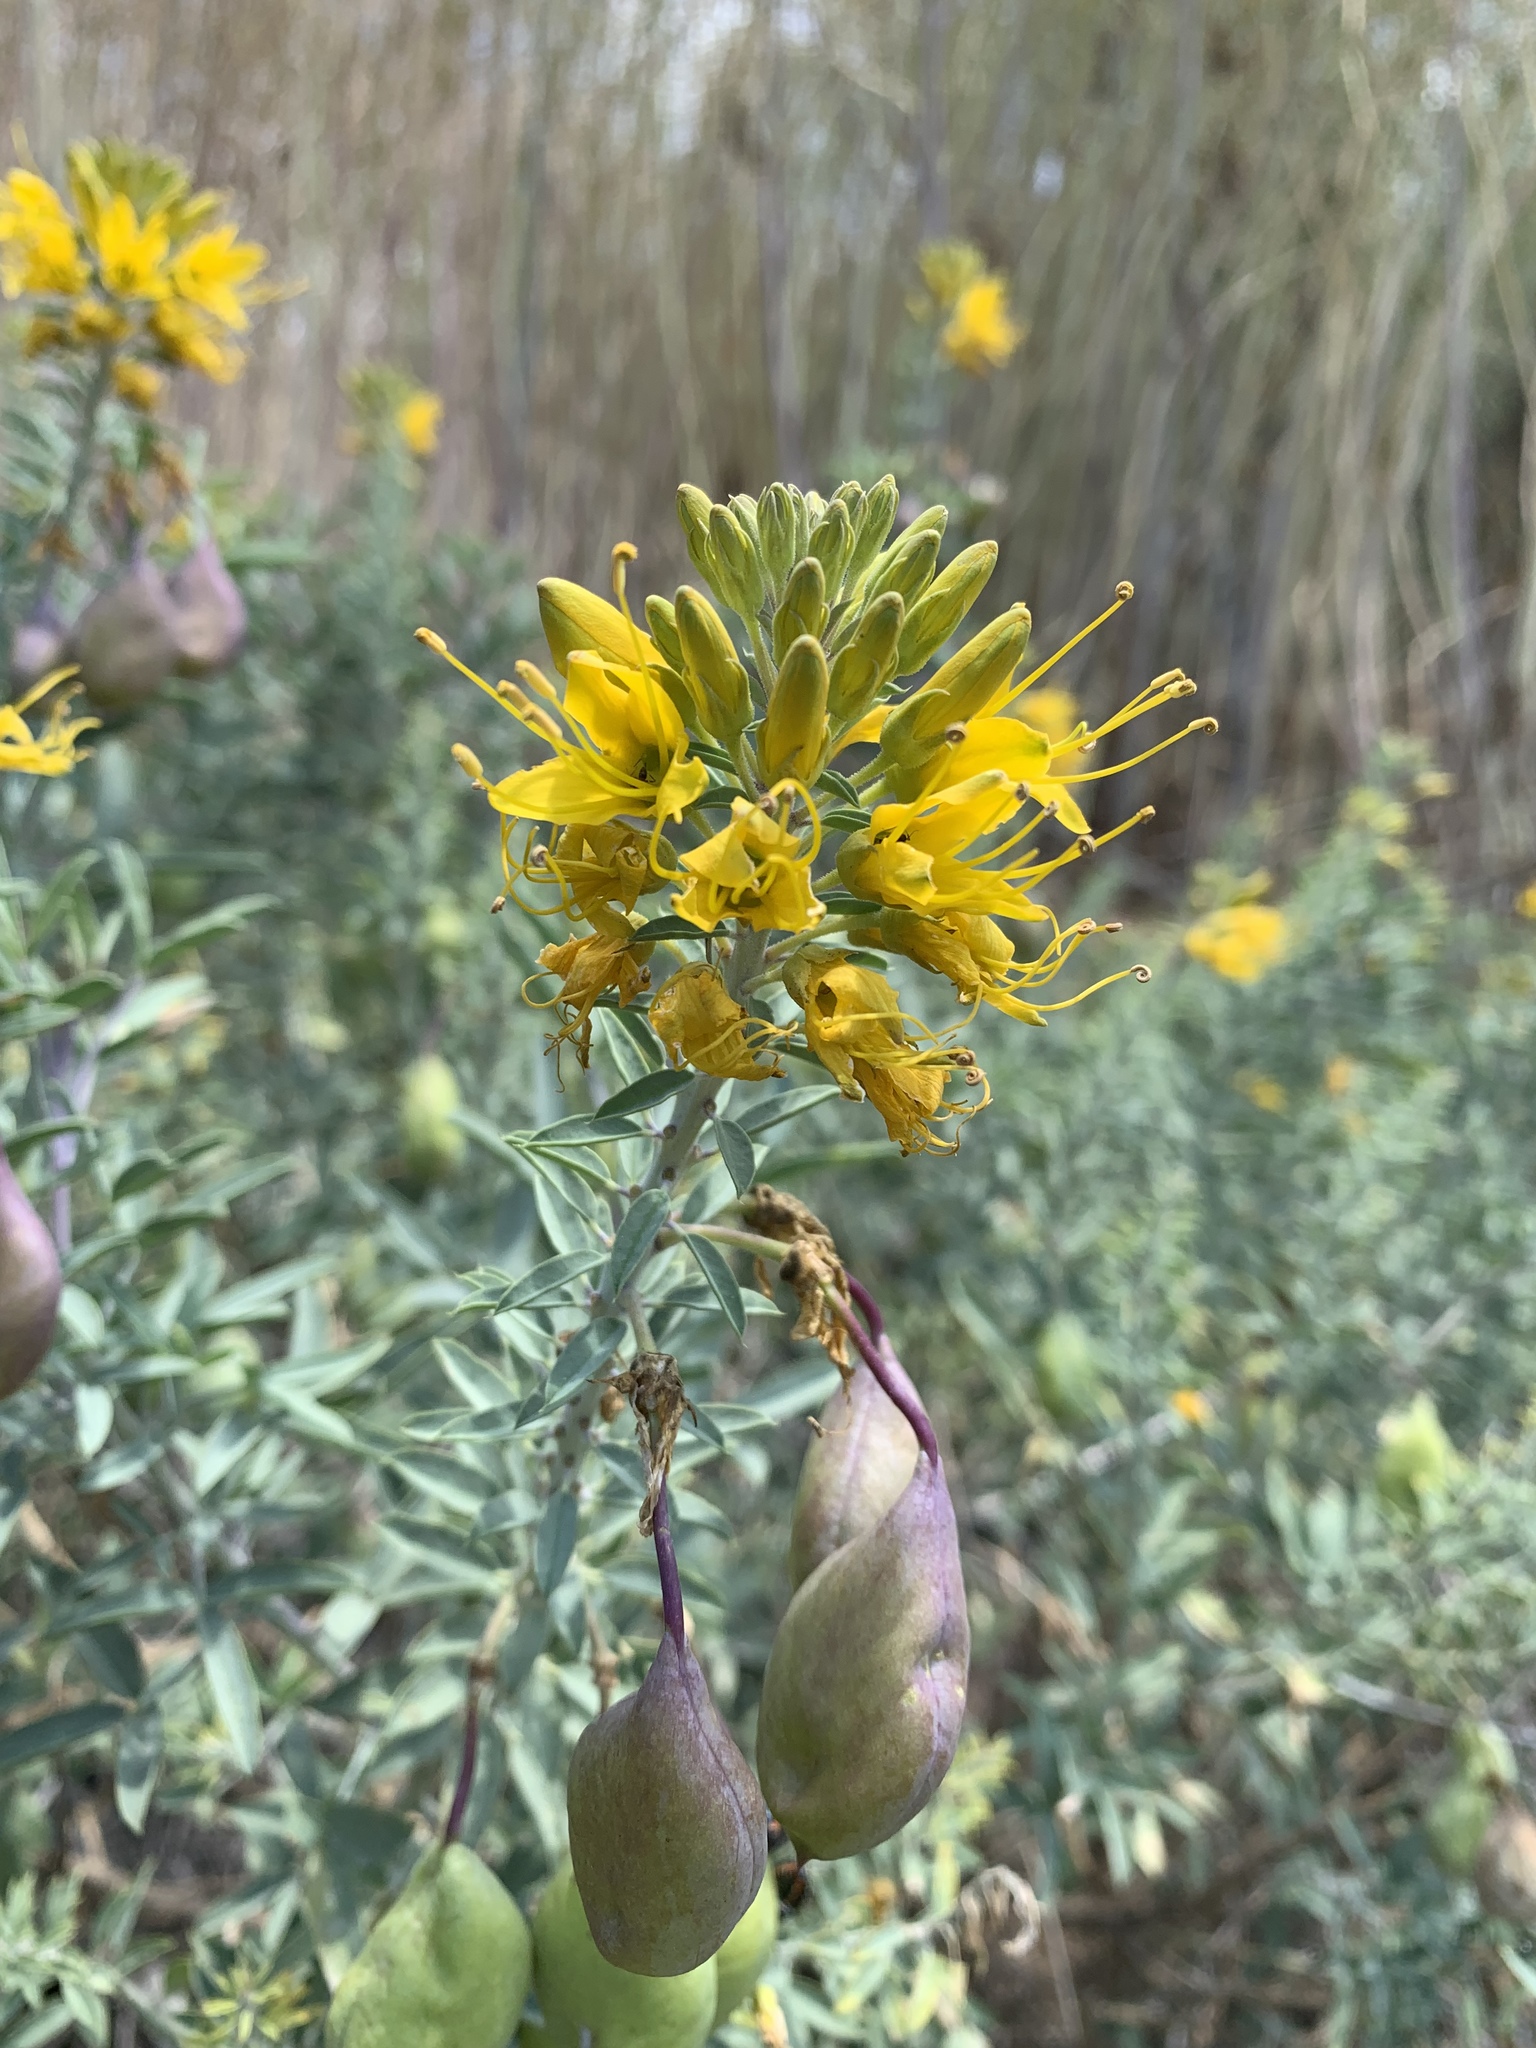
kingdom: Plantae
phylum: Tracheophyta
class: Magnoliopsida
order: Brassicales
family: Cleomaceae
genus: Cleomella
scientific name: Cleomella arborea
